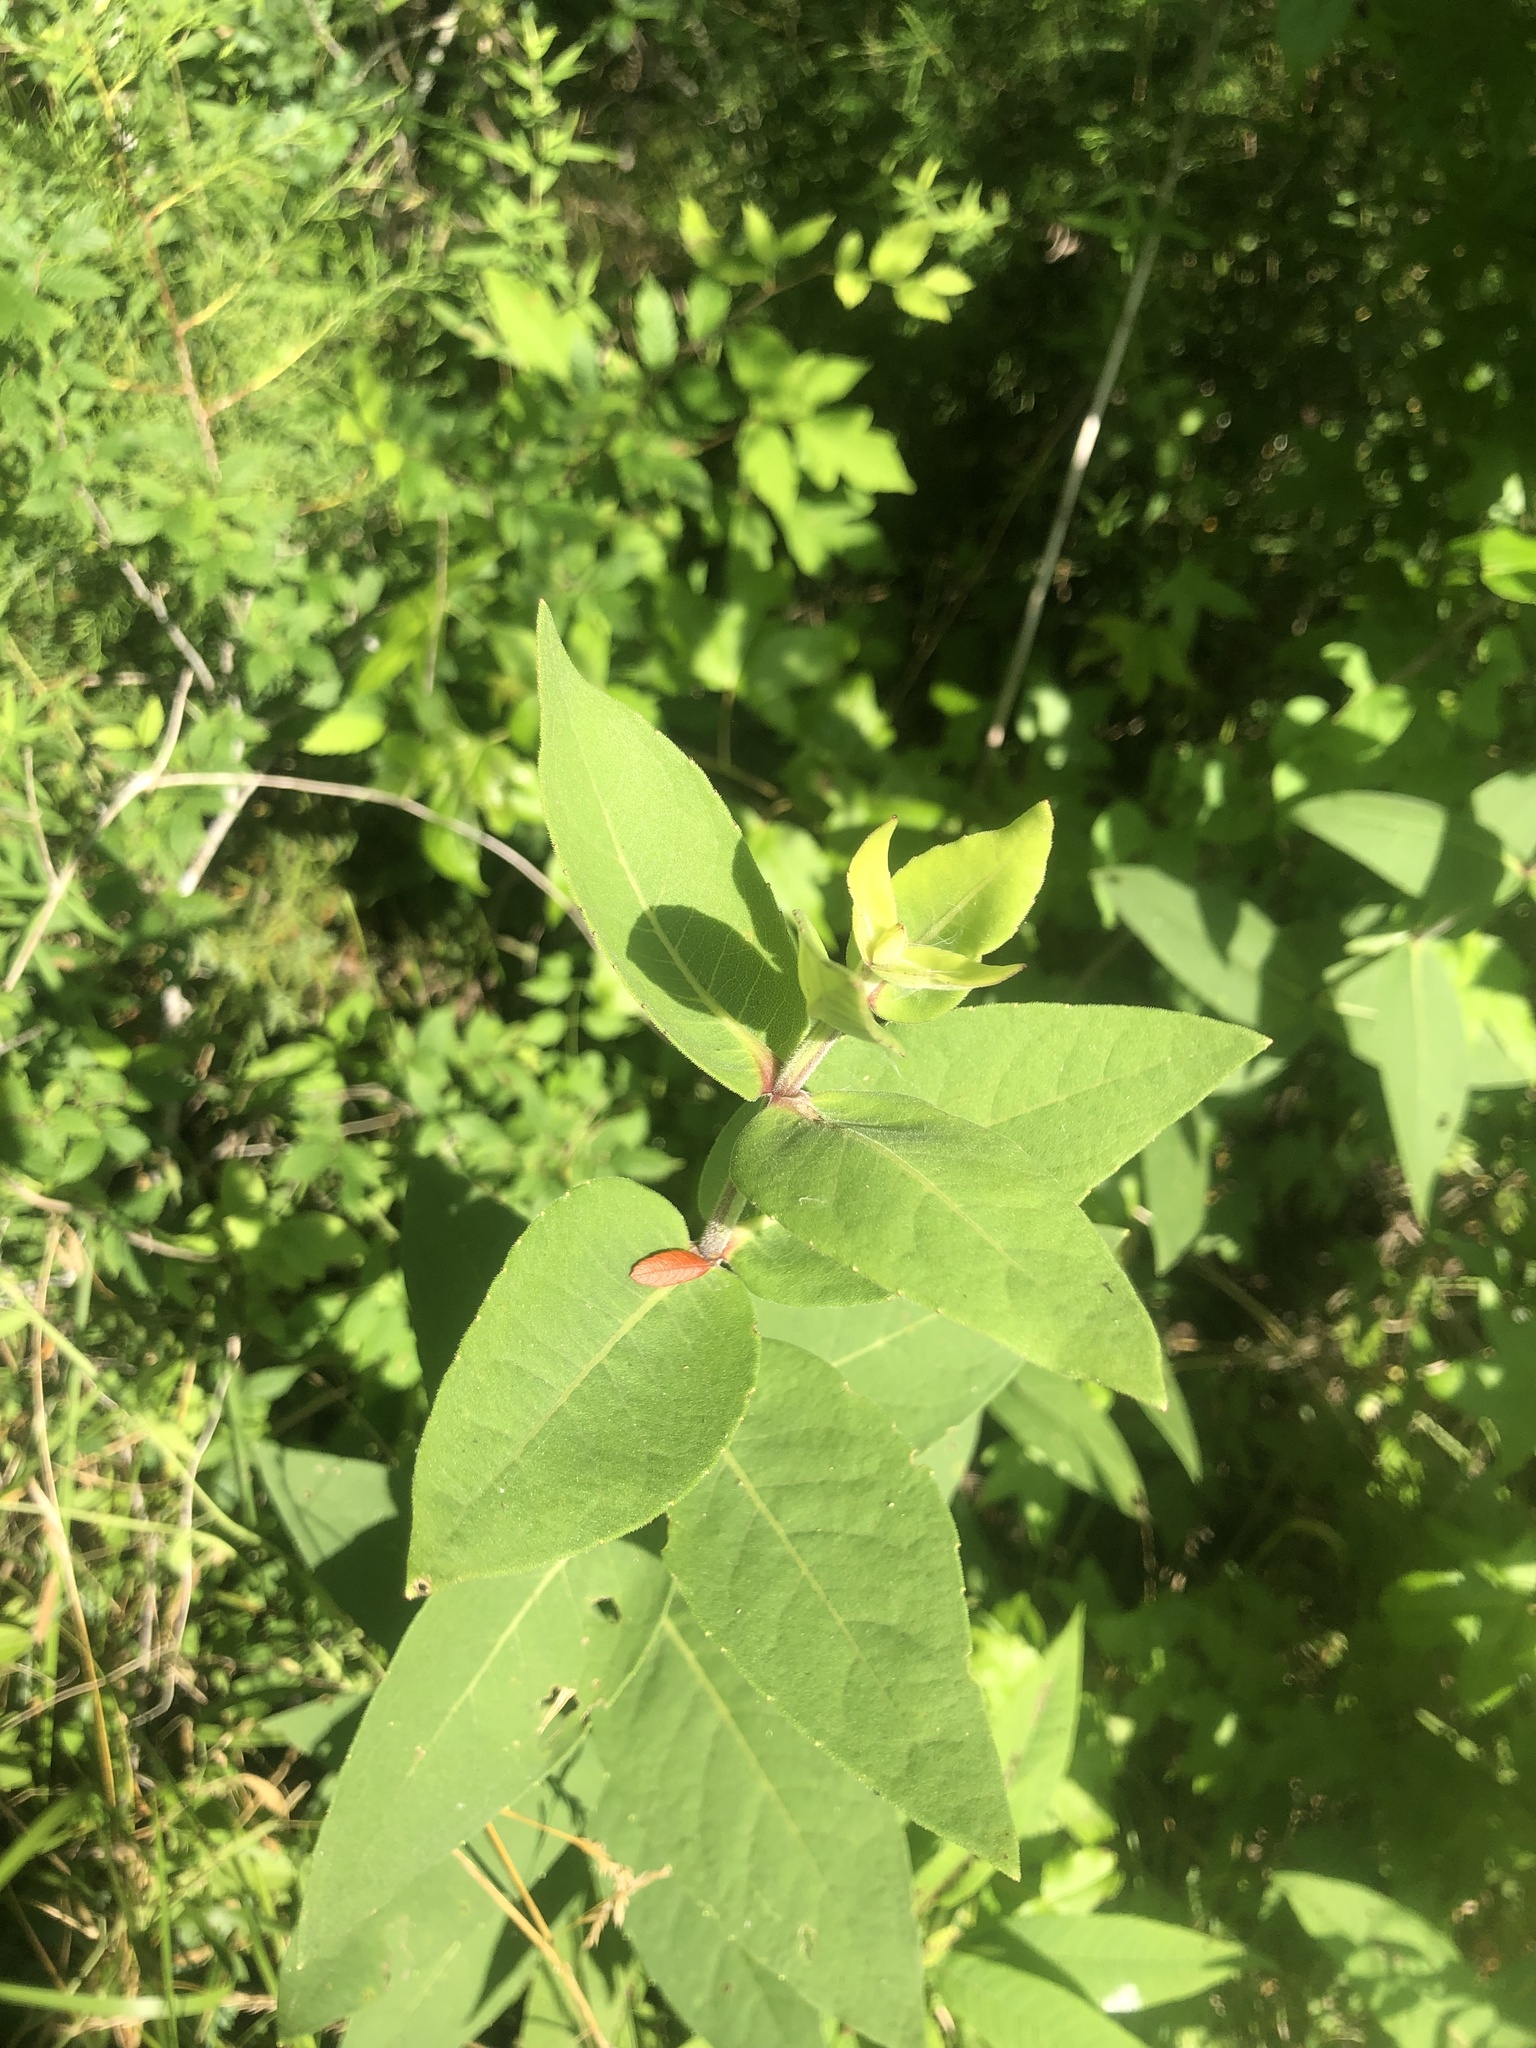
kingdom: Plantae
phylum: Tracheophyta
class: Magnoliopsida
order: Asterales
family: Asteraceae
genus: Silphium
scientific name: Silphium integrifolium
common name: Whole-leaf rosinweed
